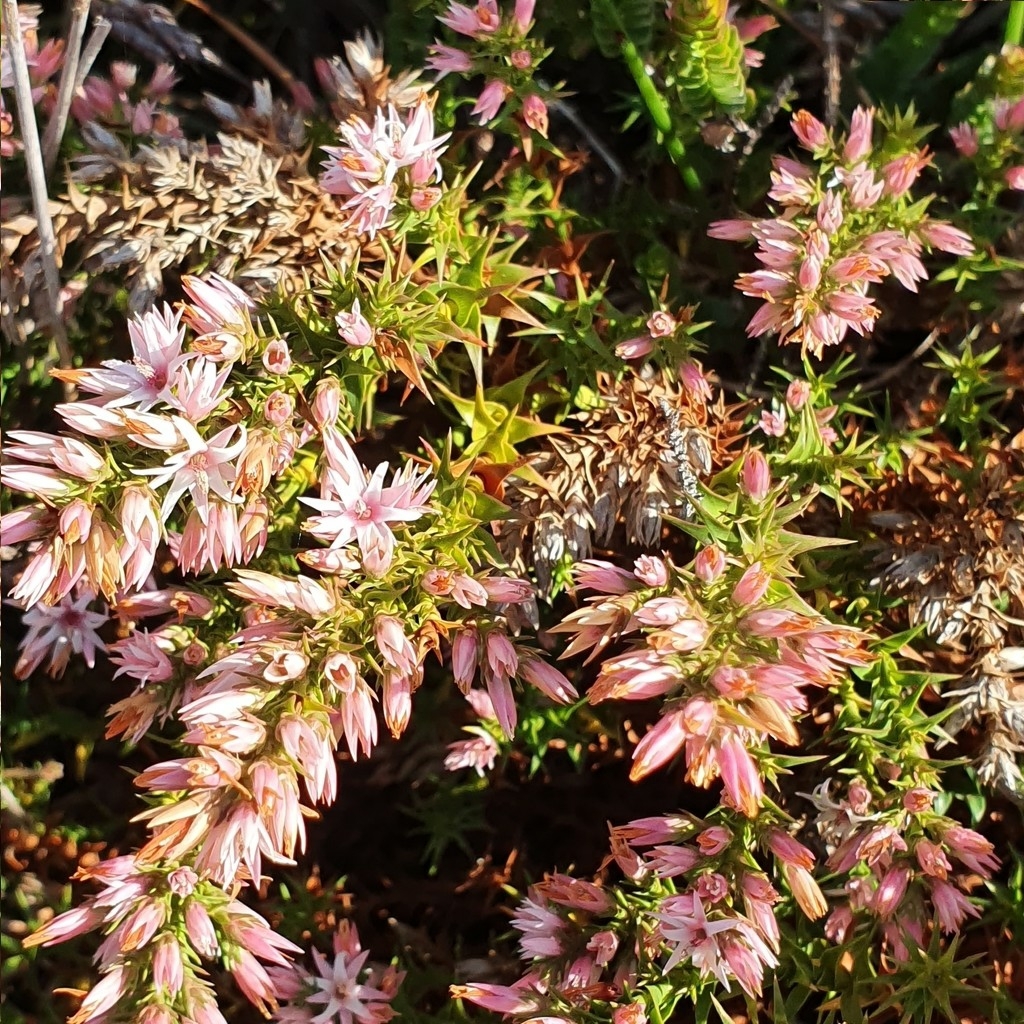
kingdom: Plantae
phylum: Tracheophyta
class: Magnoliopsida
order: Ericales
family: Ericaceae
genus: Sprengelia
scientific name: Sprengelia incarnata
